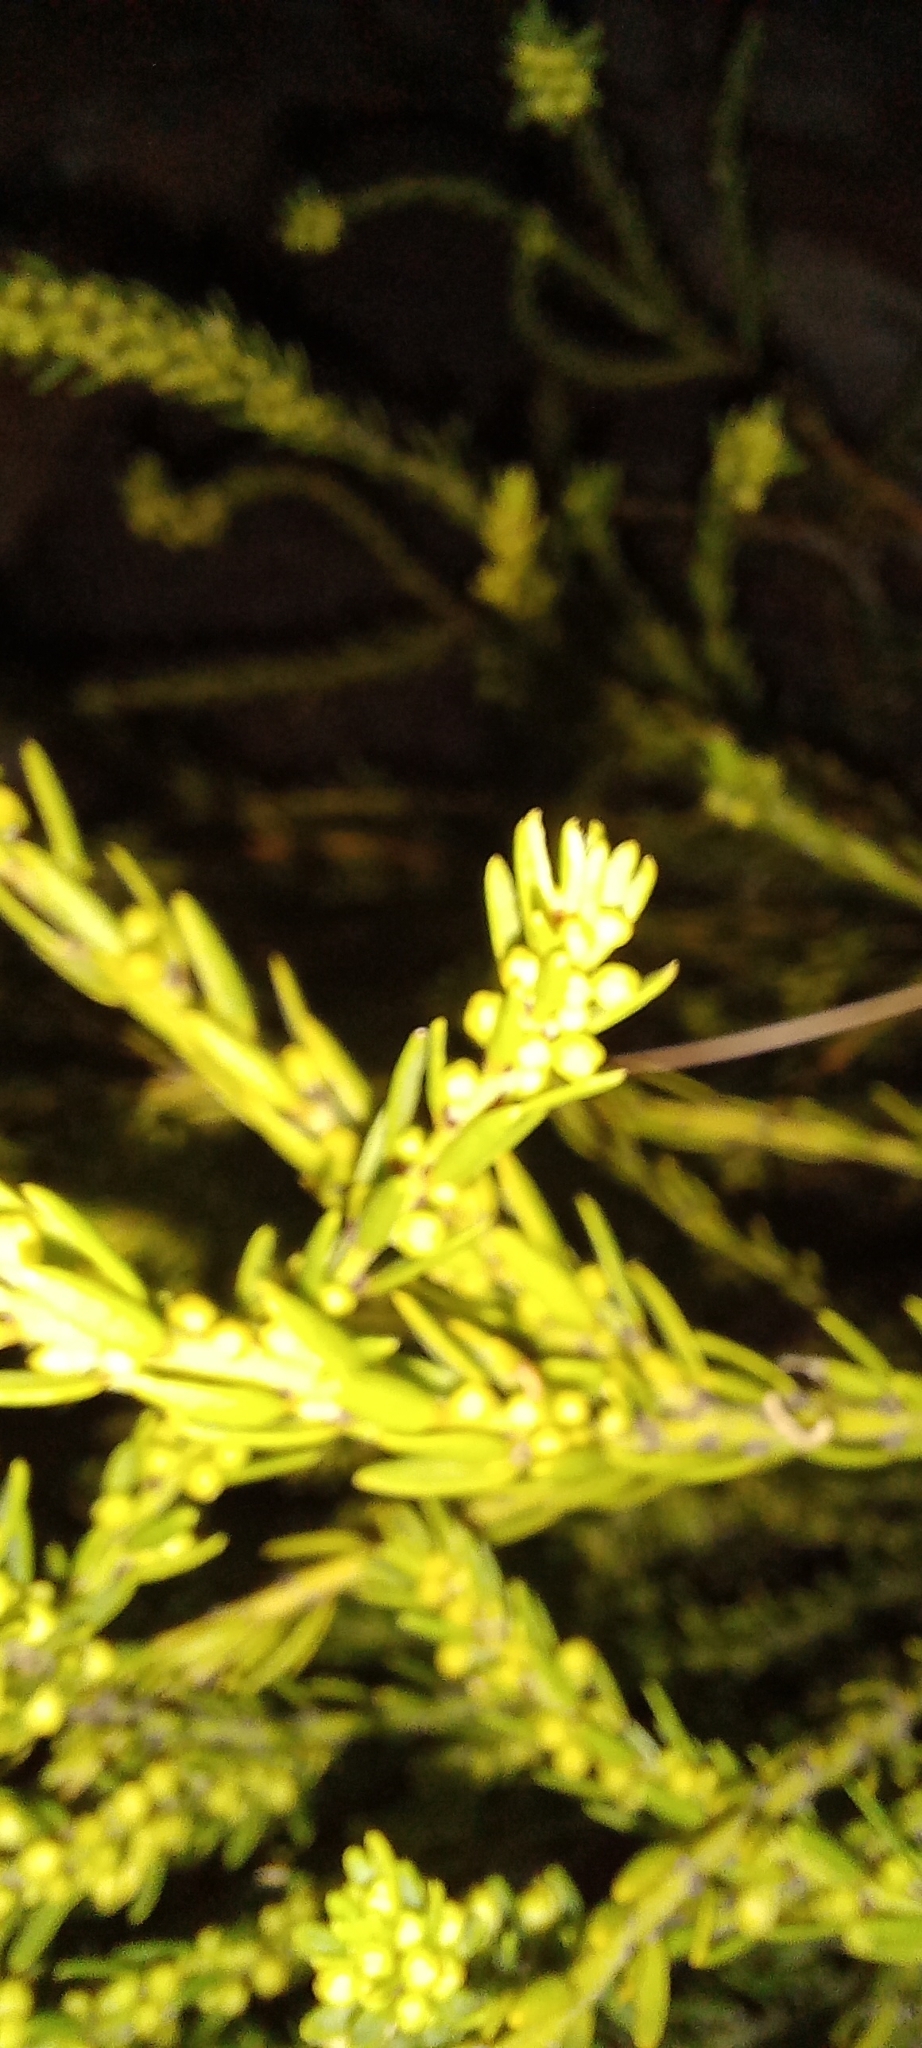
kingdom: Plantae
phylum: Tracheophyta
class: Magnoliopsida
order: Malpighiales
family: Peraceae
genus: Clutia
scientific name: Clutia ericoides
